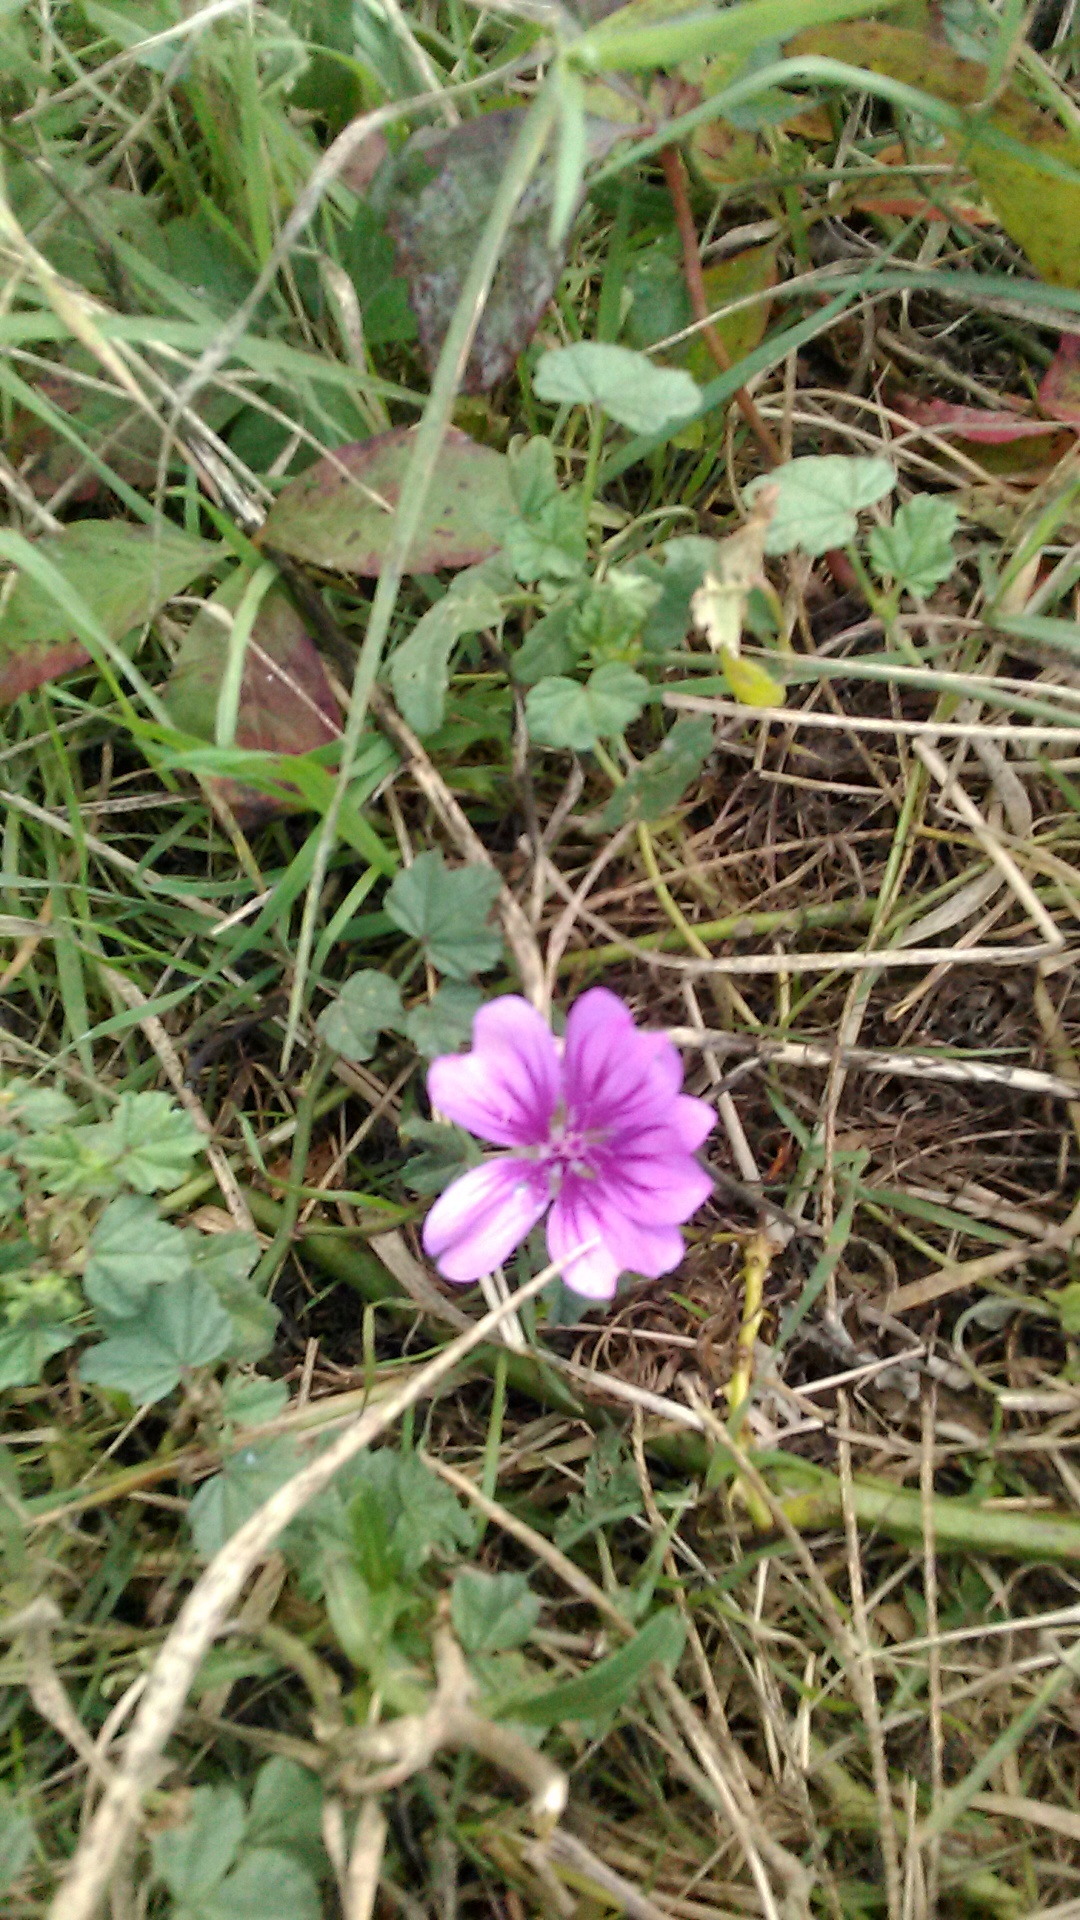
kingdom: Plantae
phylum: Tracheophyta
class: Magnoliopsida
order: Malvales
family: Malvaceae
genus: Malva
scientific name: Malva sylvestris
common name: Common mallow
